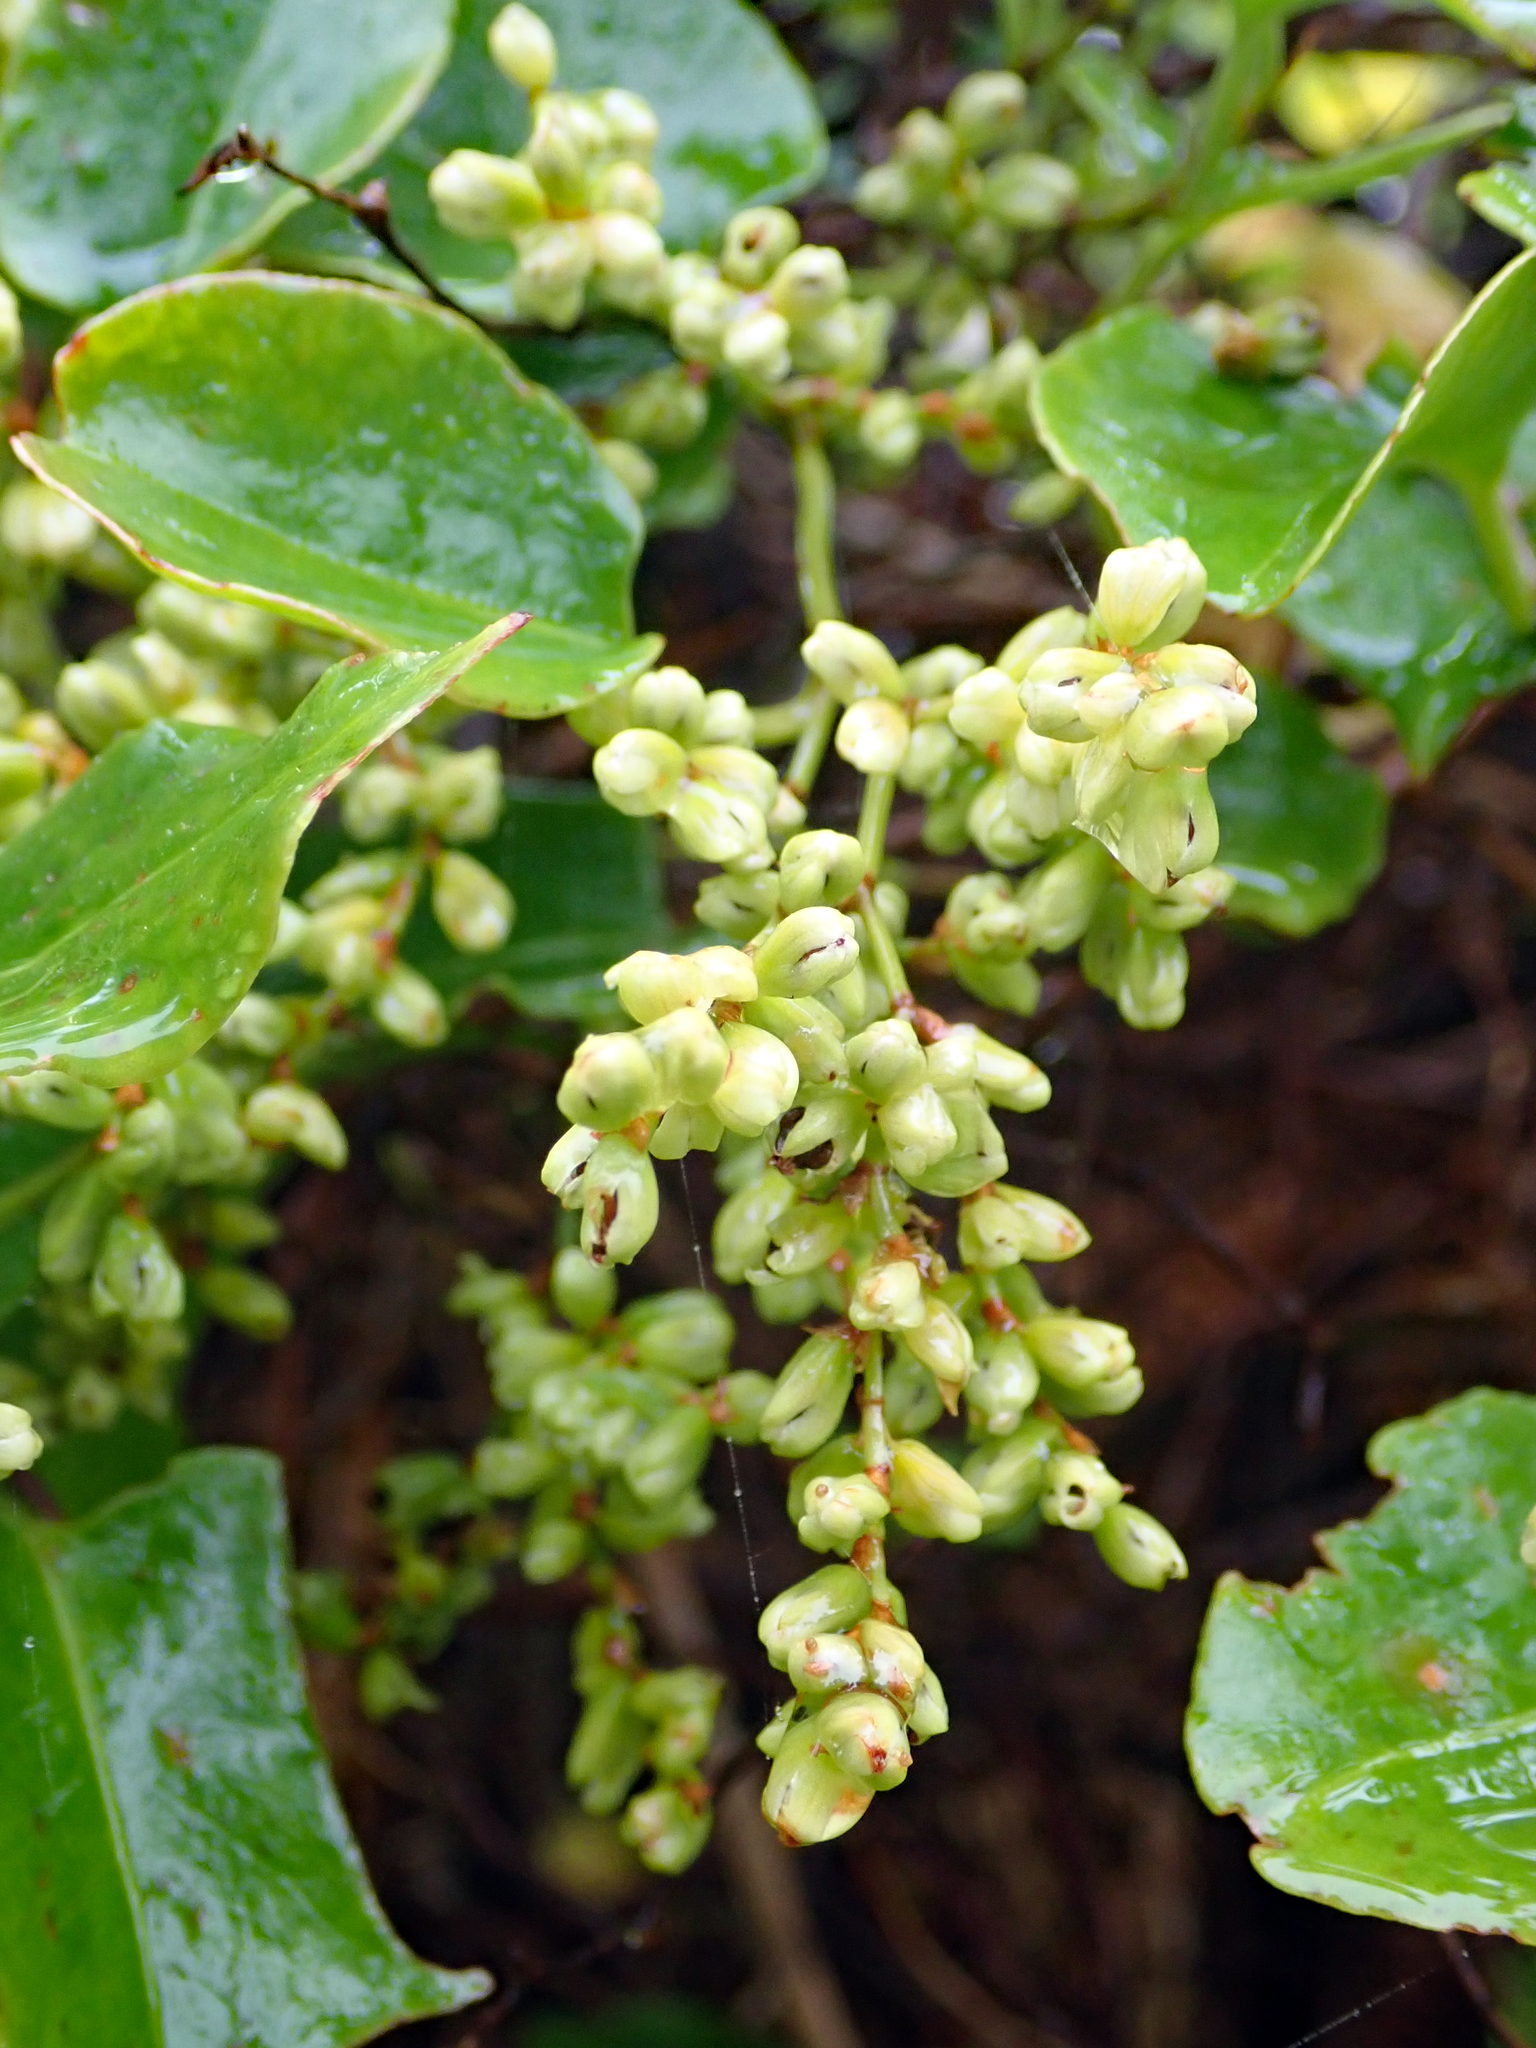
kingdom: Plantae
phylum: Tracheophyta
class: Magnoliopsida
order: Caryophyllales
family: Polygonaceae
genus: Muehlenbeckia
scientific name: Muehlenbeckia australis
